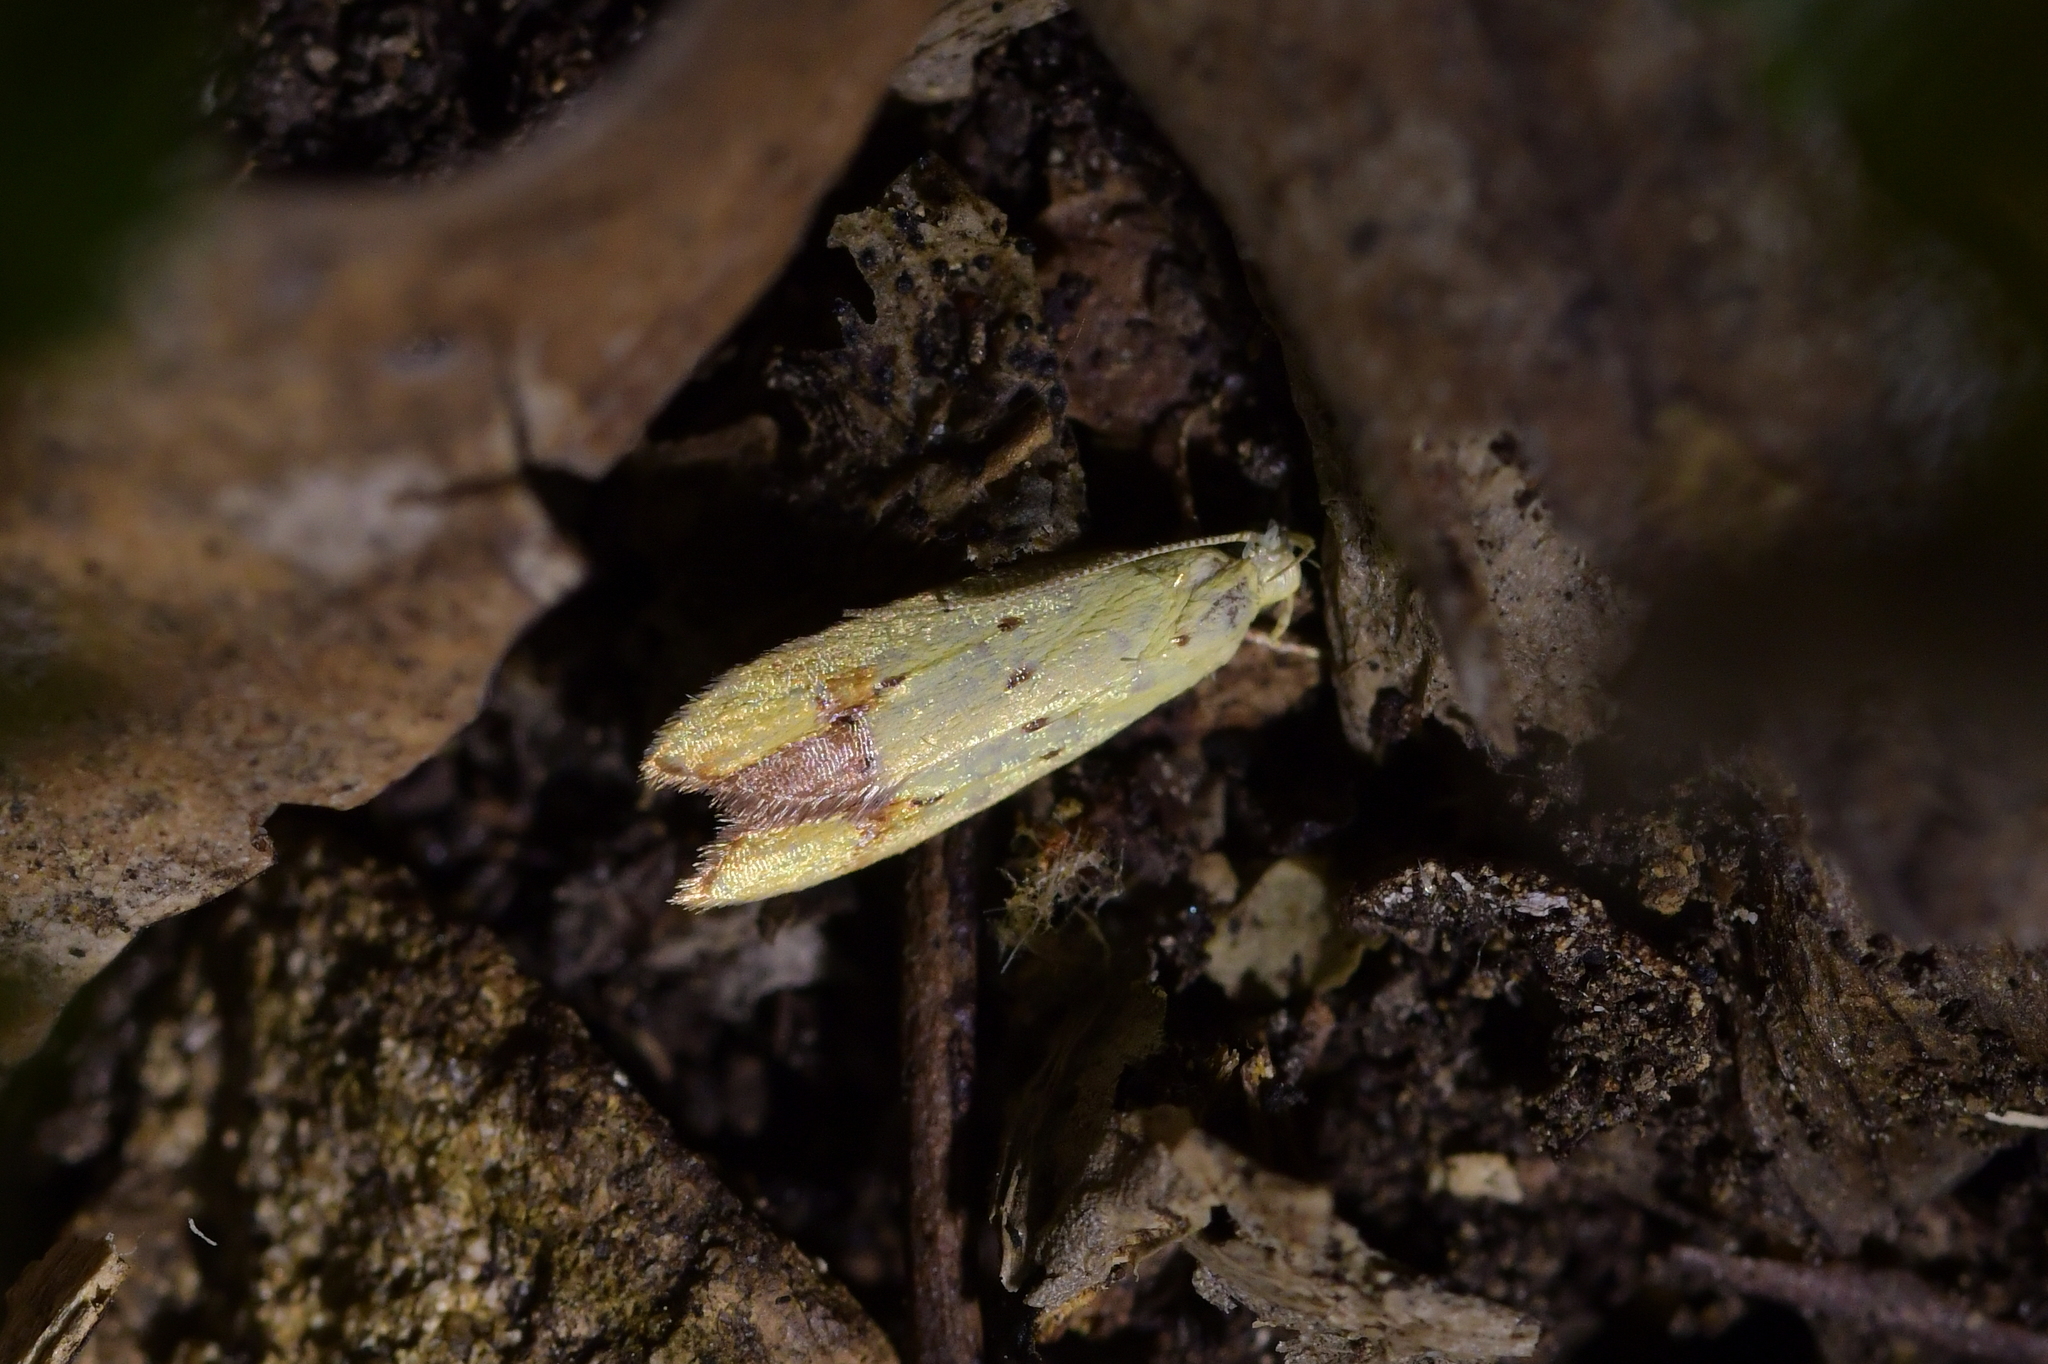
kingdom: Animalia
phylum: Arthropoda
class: Insecta
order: Lepidoptera
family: Oecophoridae
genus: Gymnobathra
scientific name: Gymnobathra flavidella
